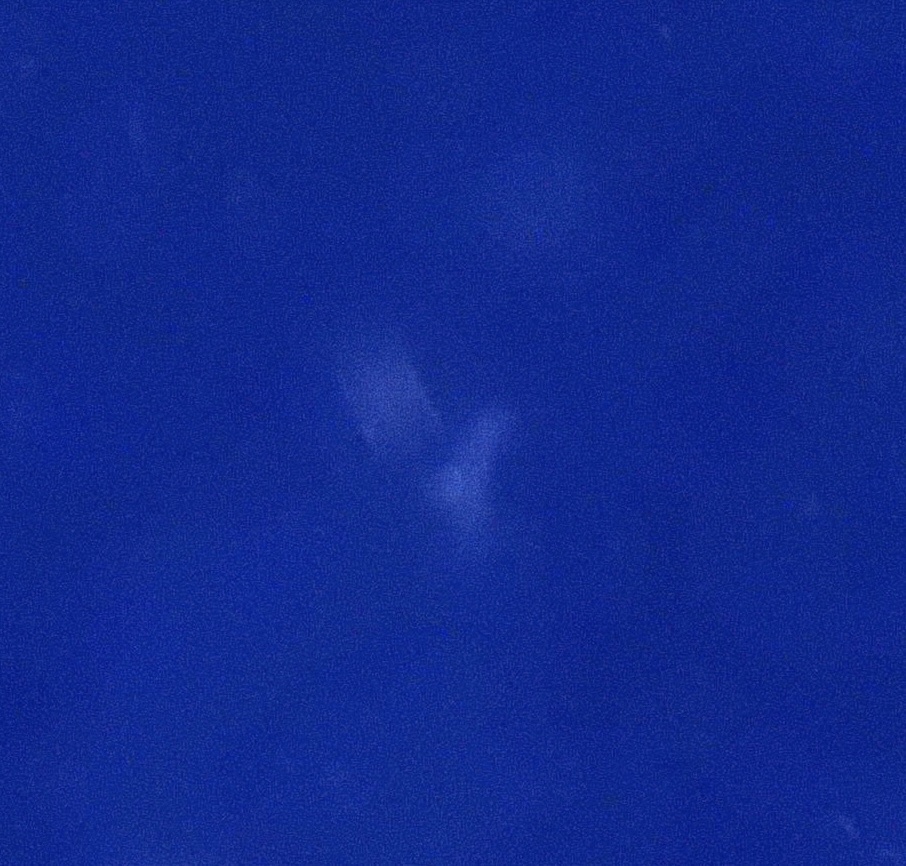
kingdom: Animalia
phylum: Chordata
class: Elasmobranchii
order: Carcharhiniformes
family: Carcharhinidae
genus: Carcharhinus
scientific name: Carcharhinus amblyrhynchos
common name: Grey reef shark
